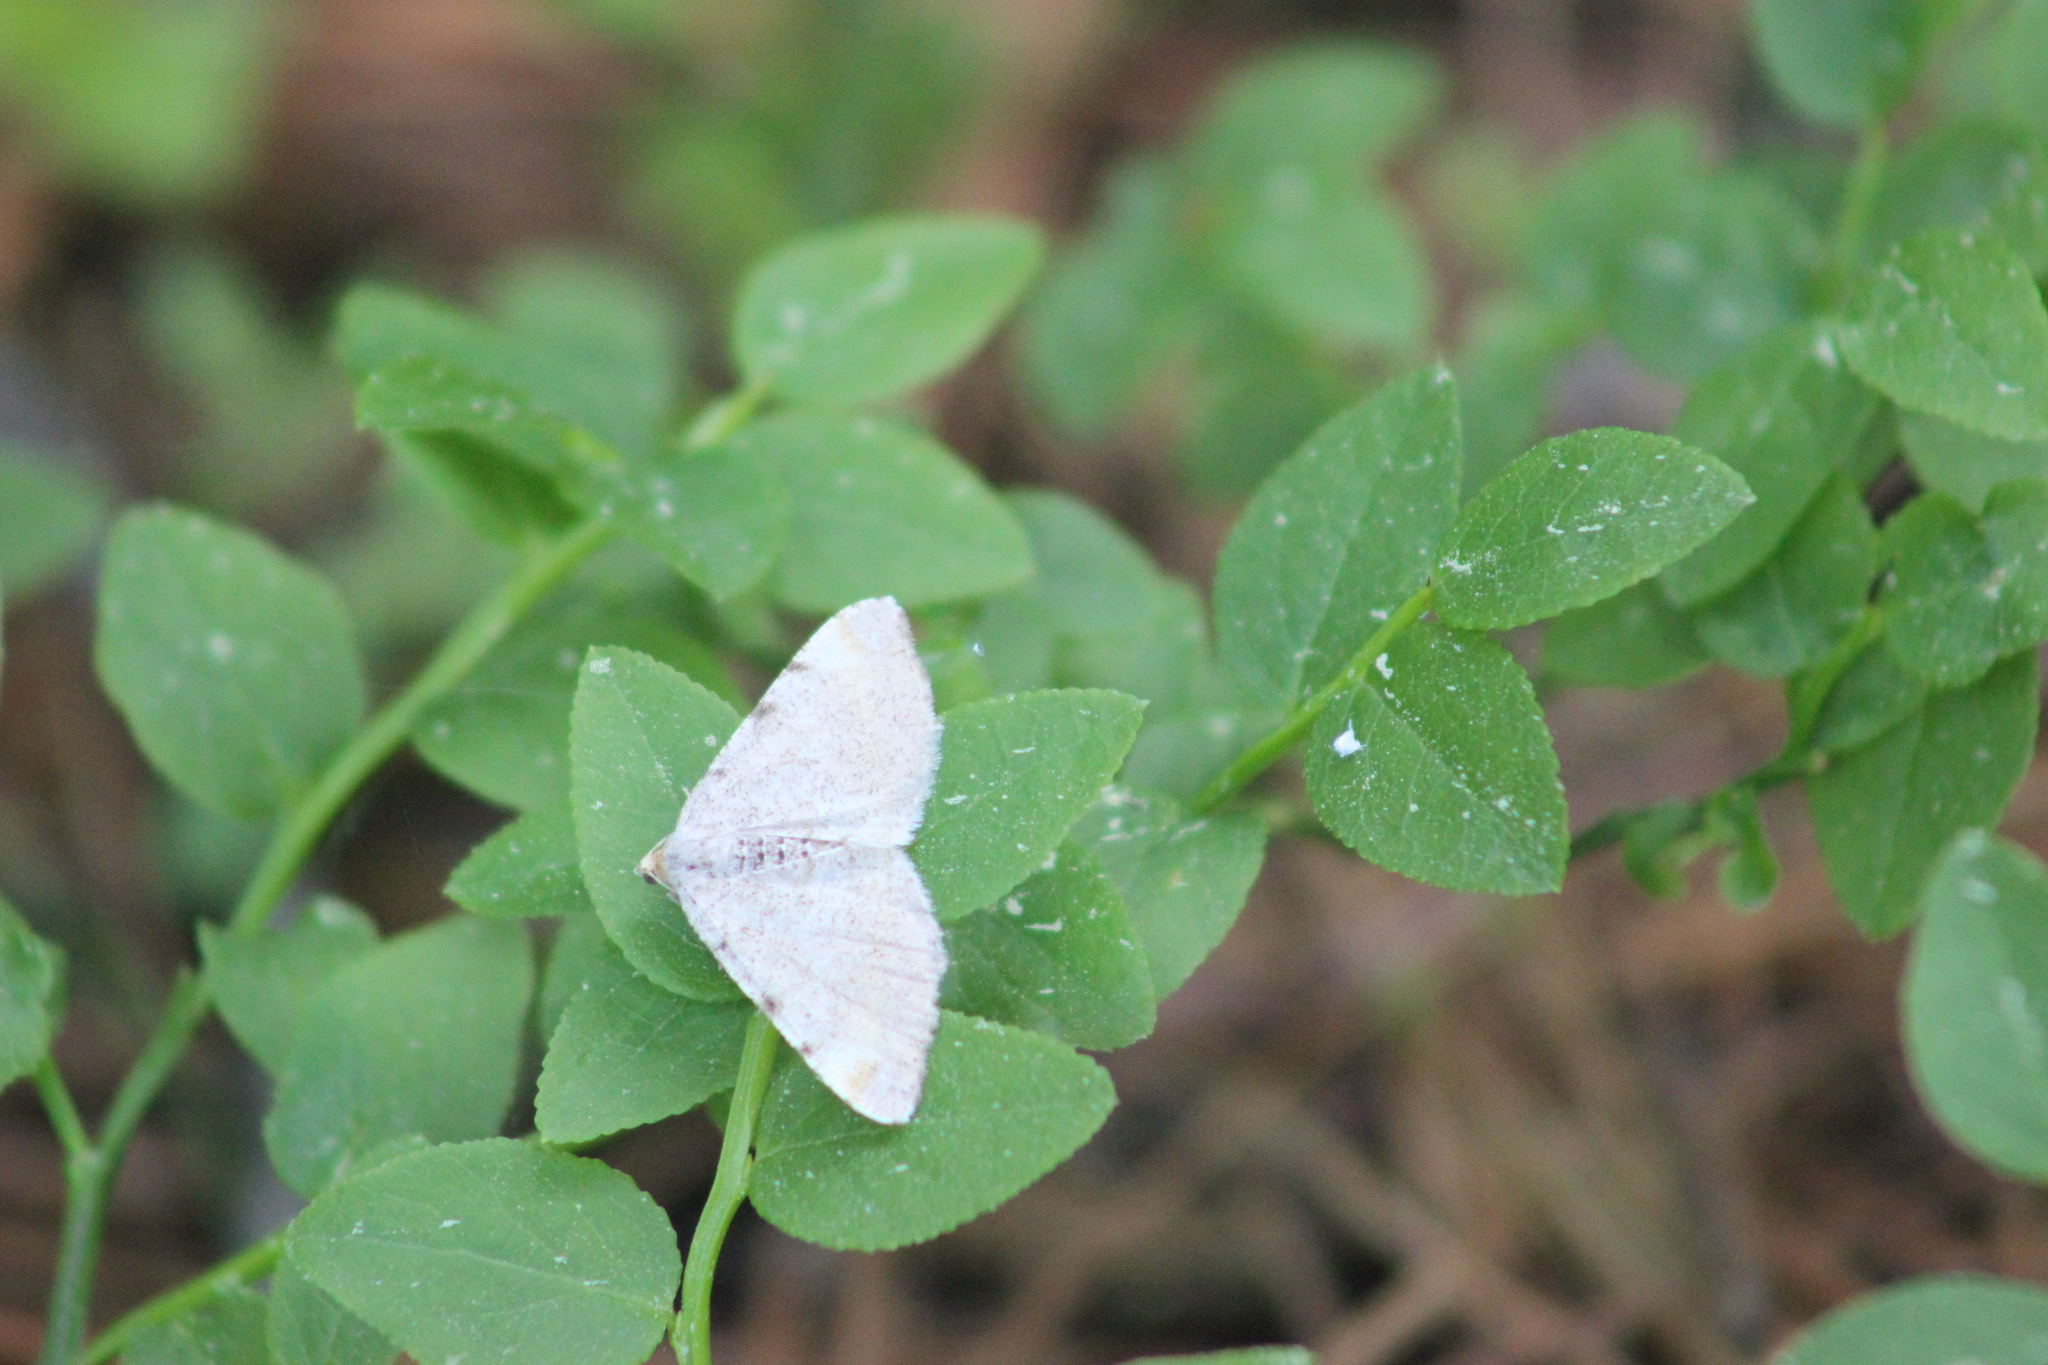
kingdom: Animalia
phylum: Arthropoda
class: Insecta
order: Lepidoptera
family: Geometridae
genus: Macaria
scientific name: Macaria liturata
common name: Tawny-barred angle
